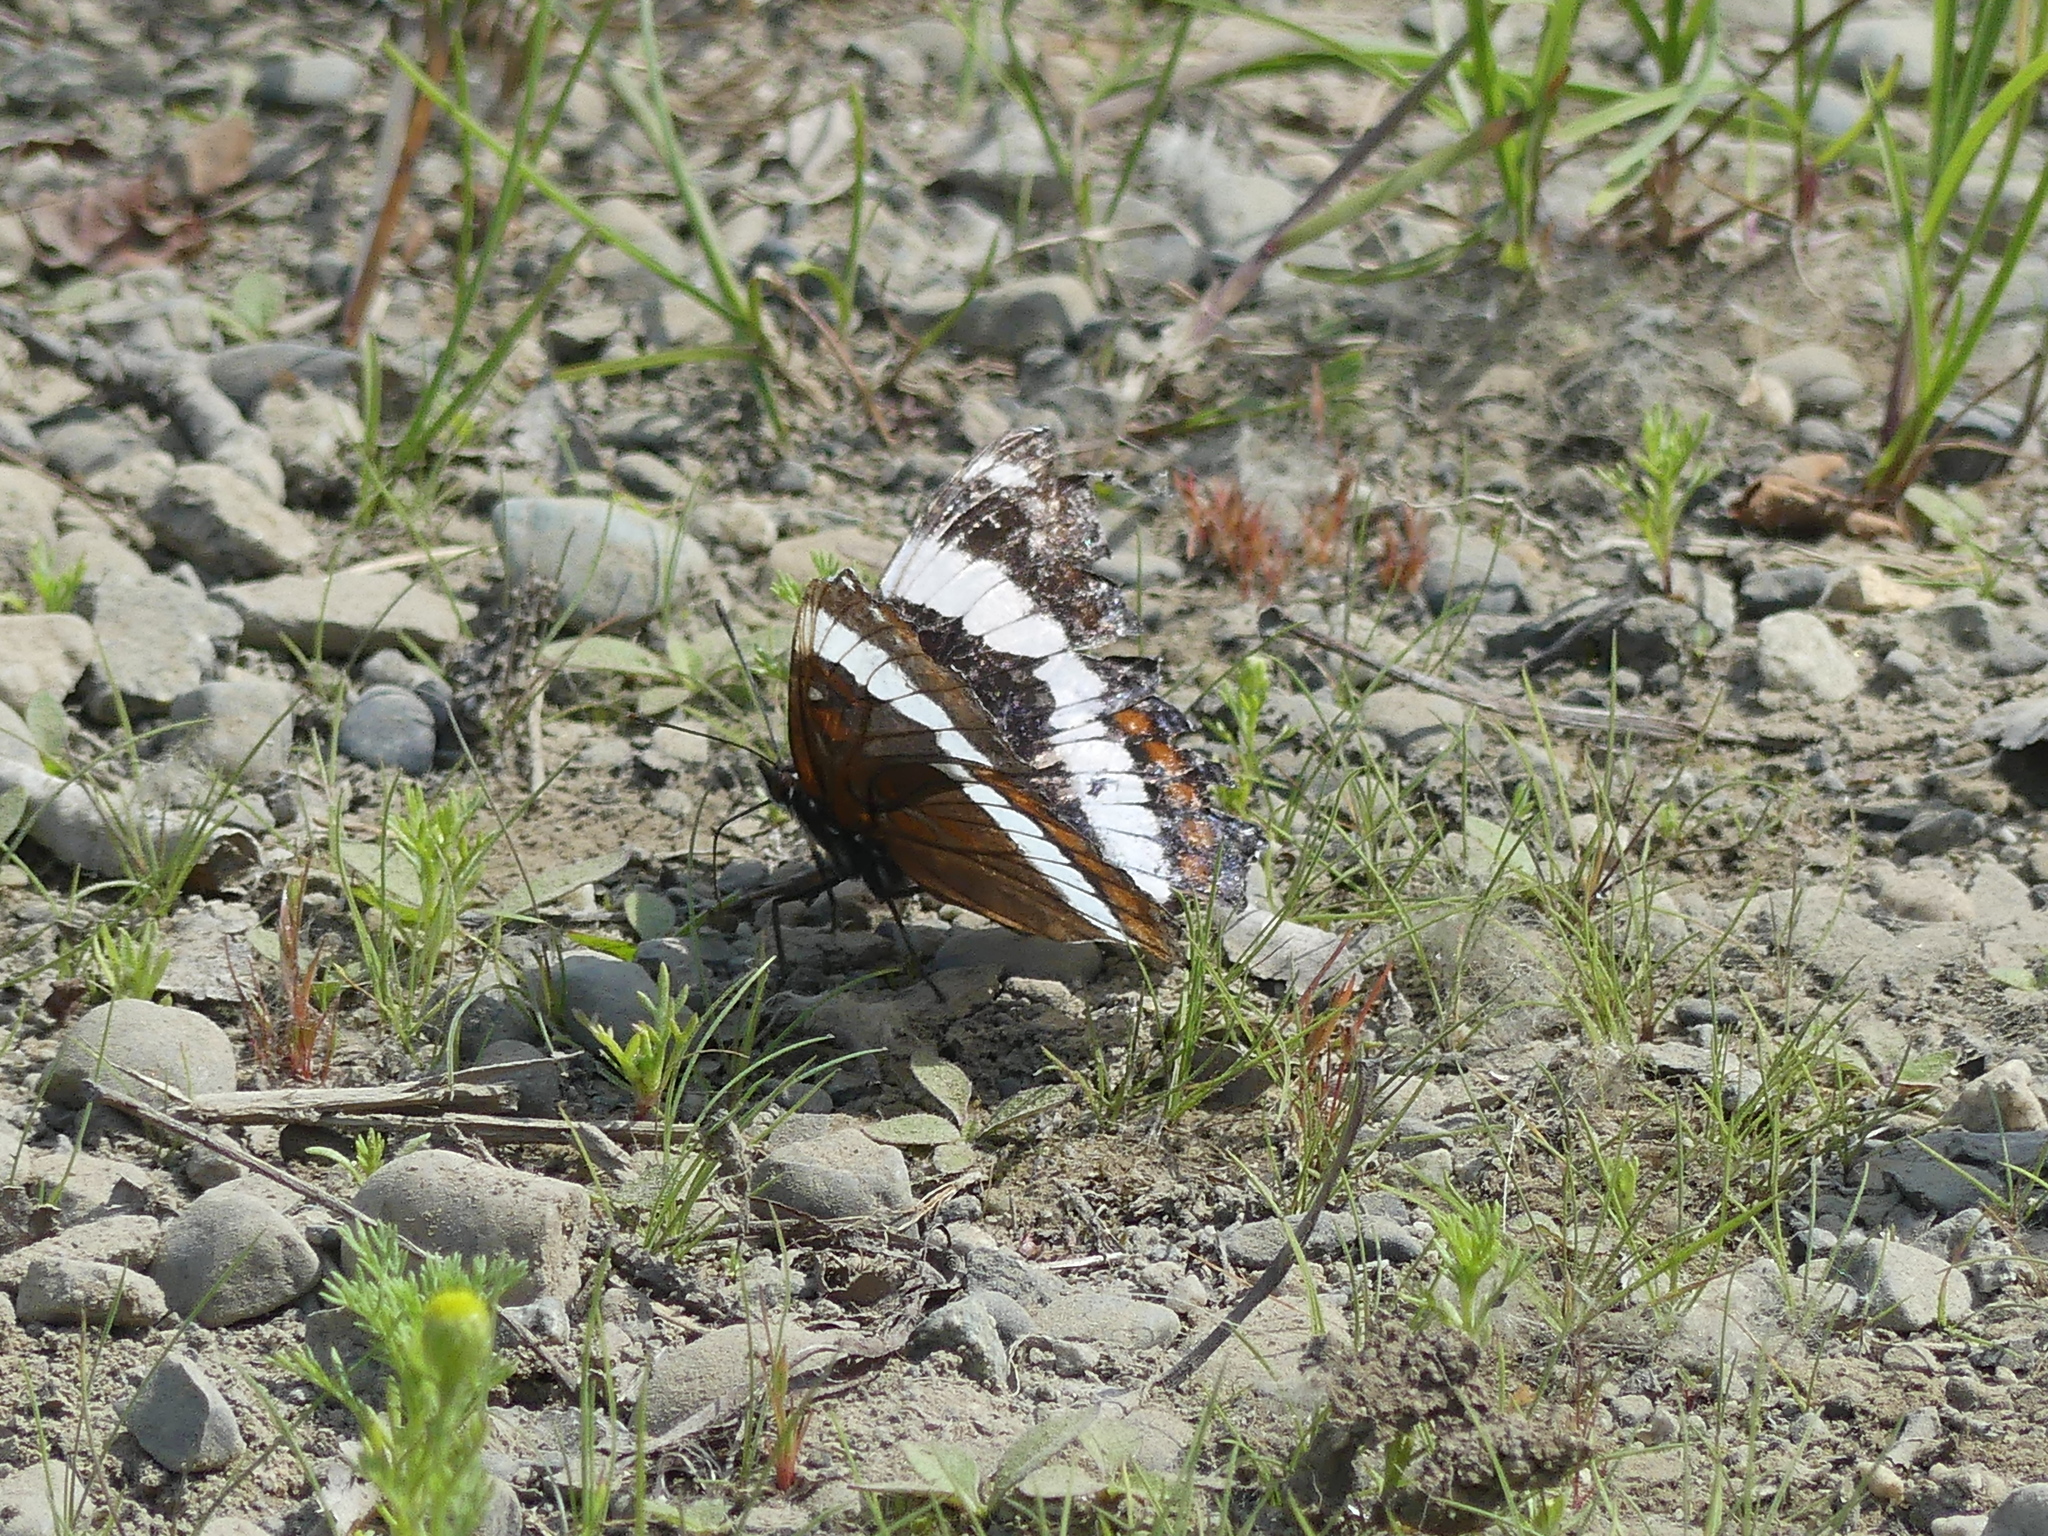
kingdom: Animalia
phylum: Arthropoda
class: Insecta
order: Lepidoptera
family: Nymphalidae
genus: Limenitis
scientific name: Limenitis arthemis
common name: Red-spotted admiral
